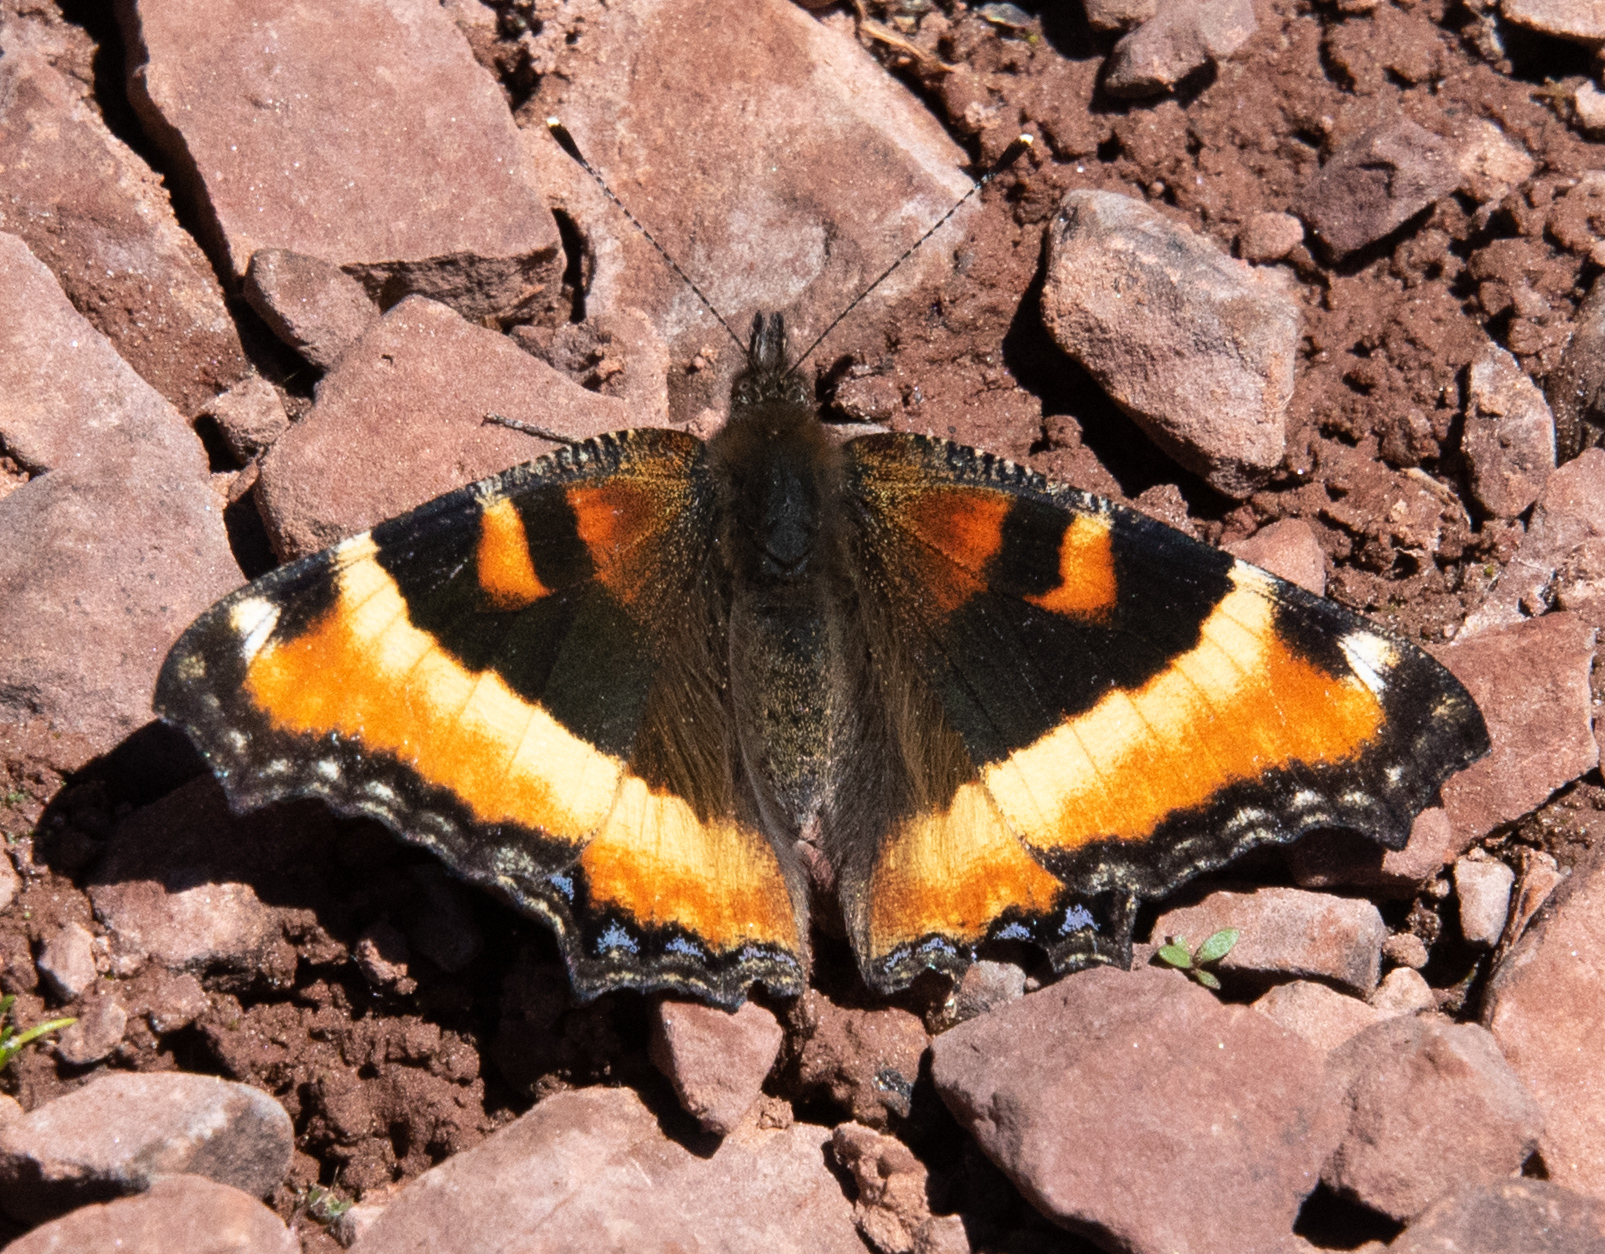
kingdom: Animalia
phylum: Arthropoda
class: Insecta
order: Lepidoptera
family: Nymphalidae
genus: Aglais
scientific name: Aglais milberti
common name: Milbert's tortoiseshell
